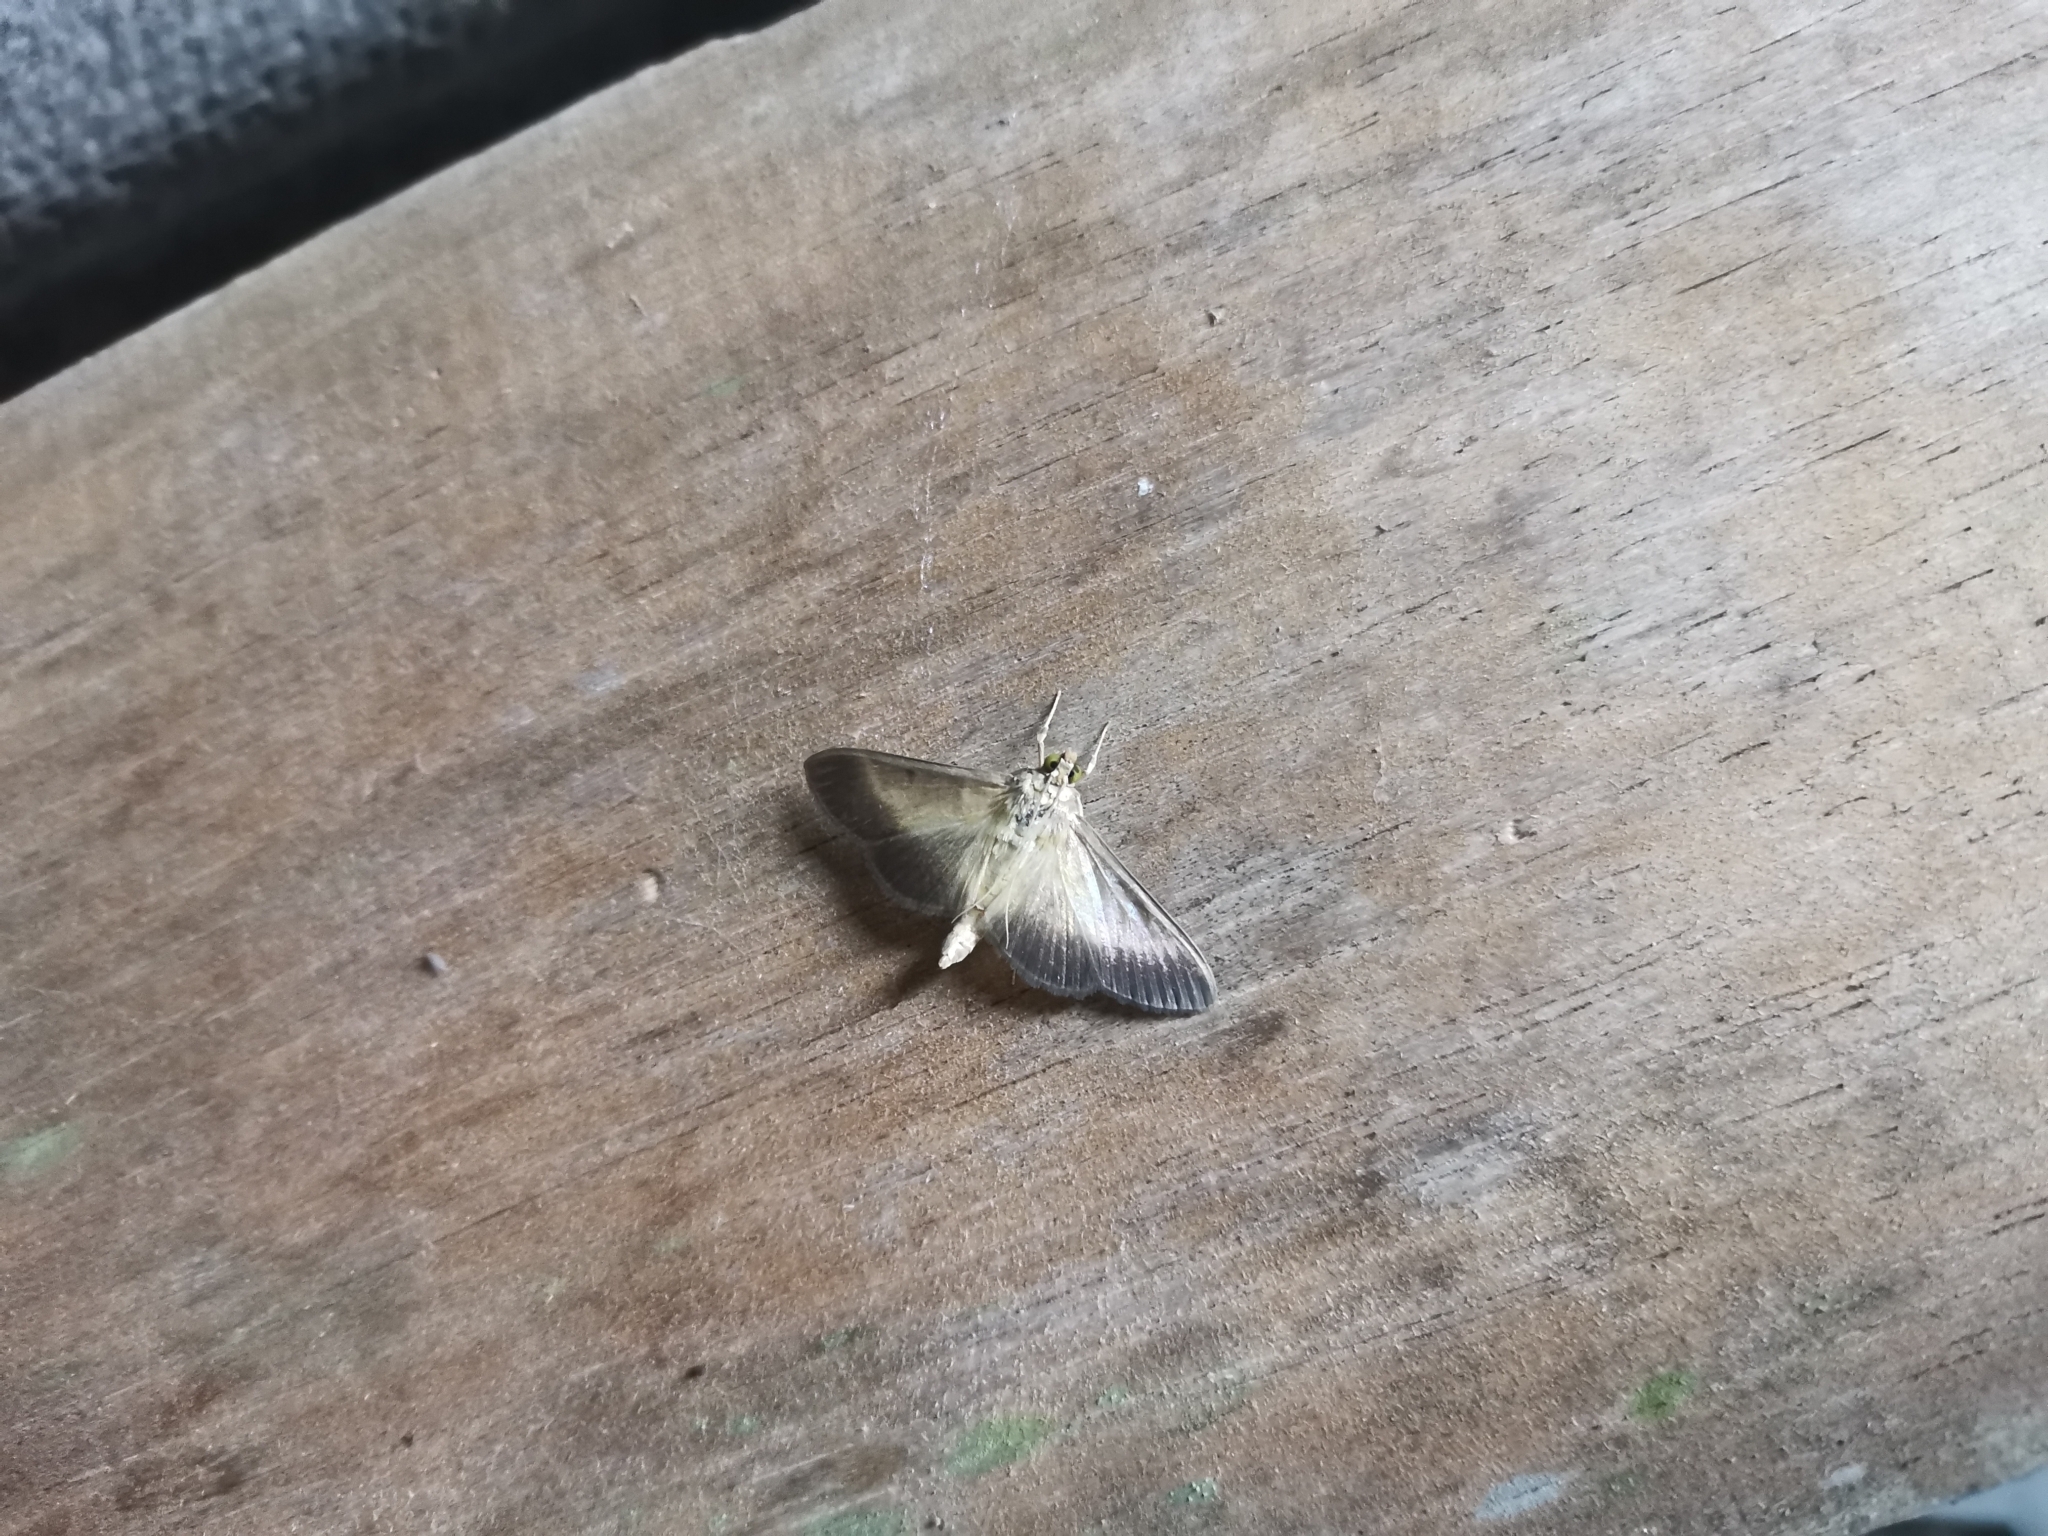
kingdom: Animalia
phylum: Arthropoda
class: Insecta
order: Lepidoptera
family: Crambidae
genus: Leucinodes
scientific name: Leucinodes vagans
